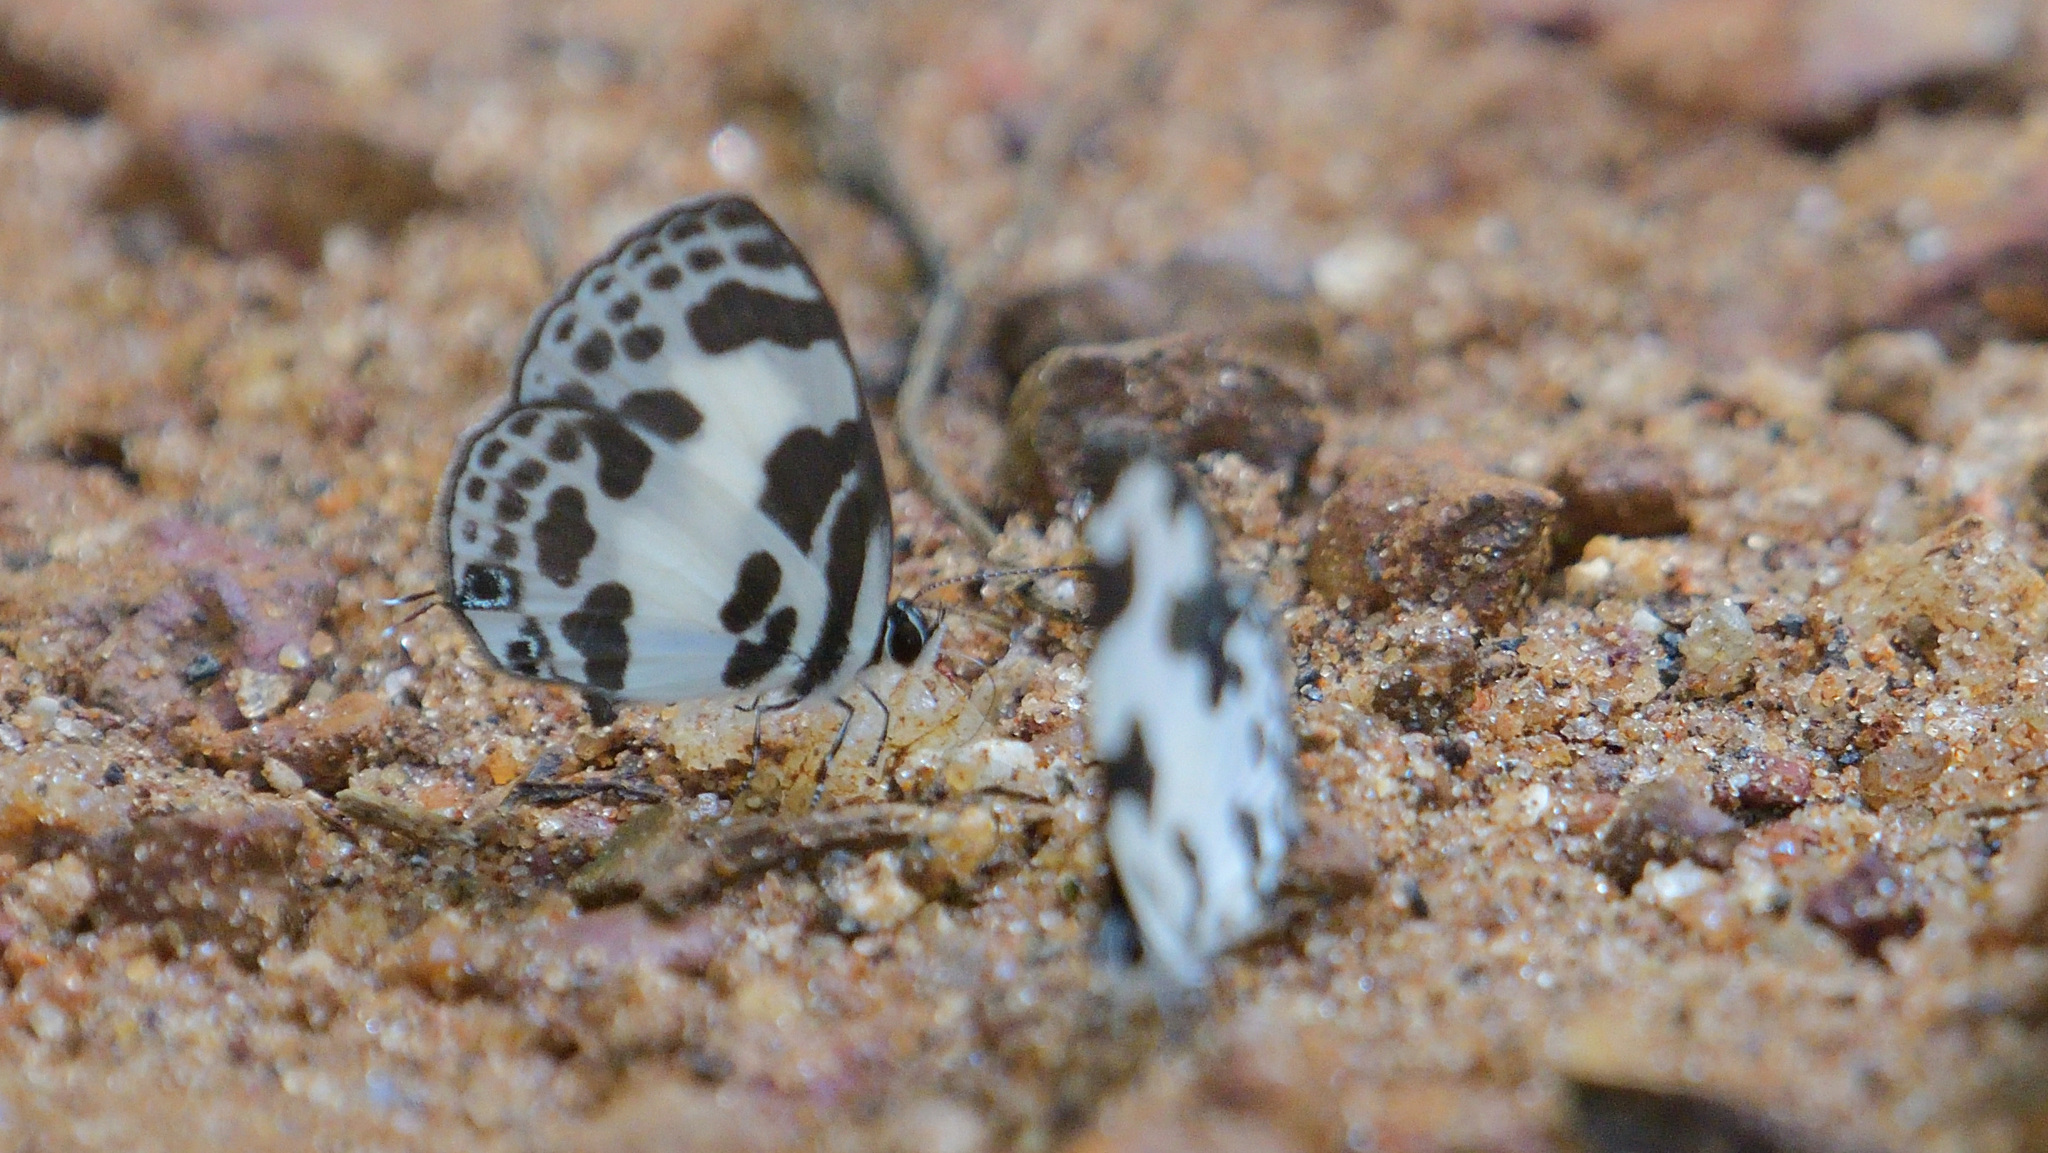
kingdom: Animalia
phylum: Arthropoda
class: Insecta
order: Lepidoptera
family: Lycaenidae
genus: Discolampa
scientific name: Discolampa ethion
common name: Banded blue pierrot
